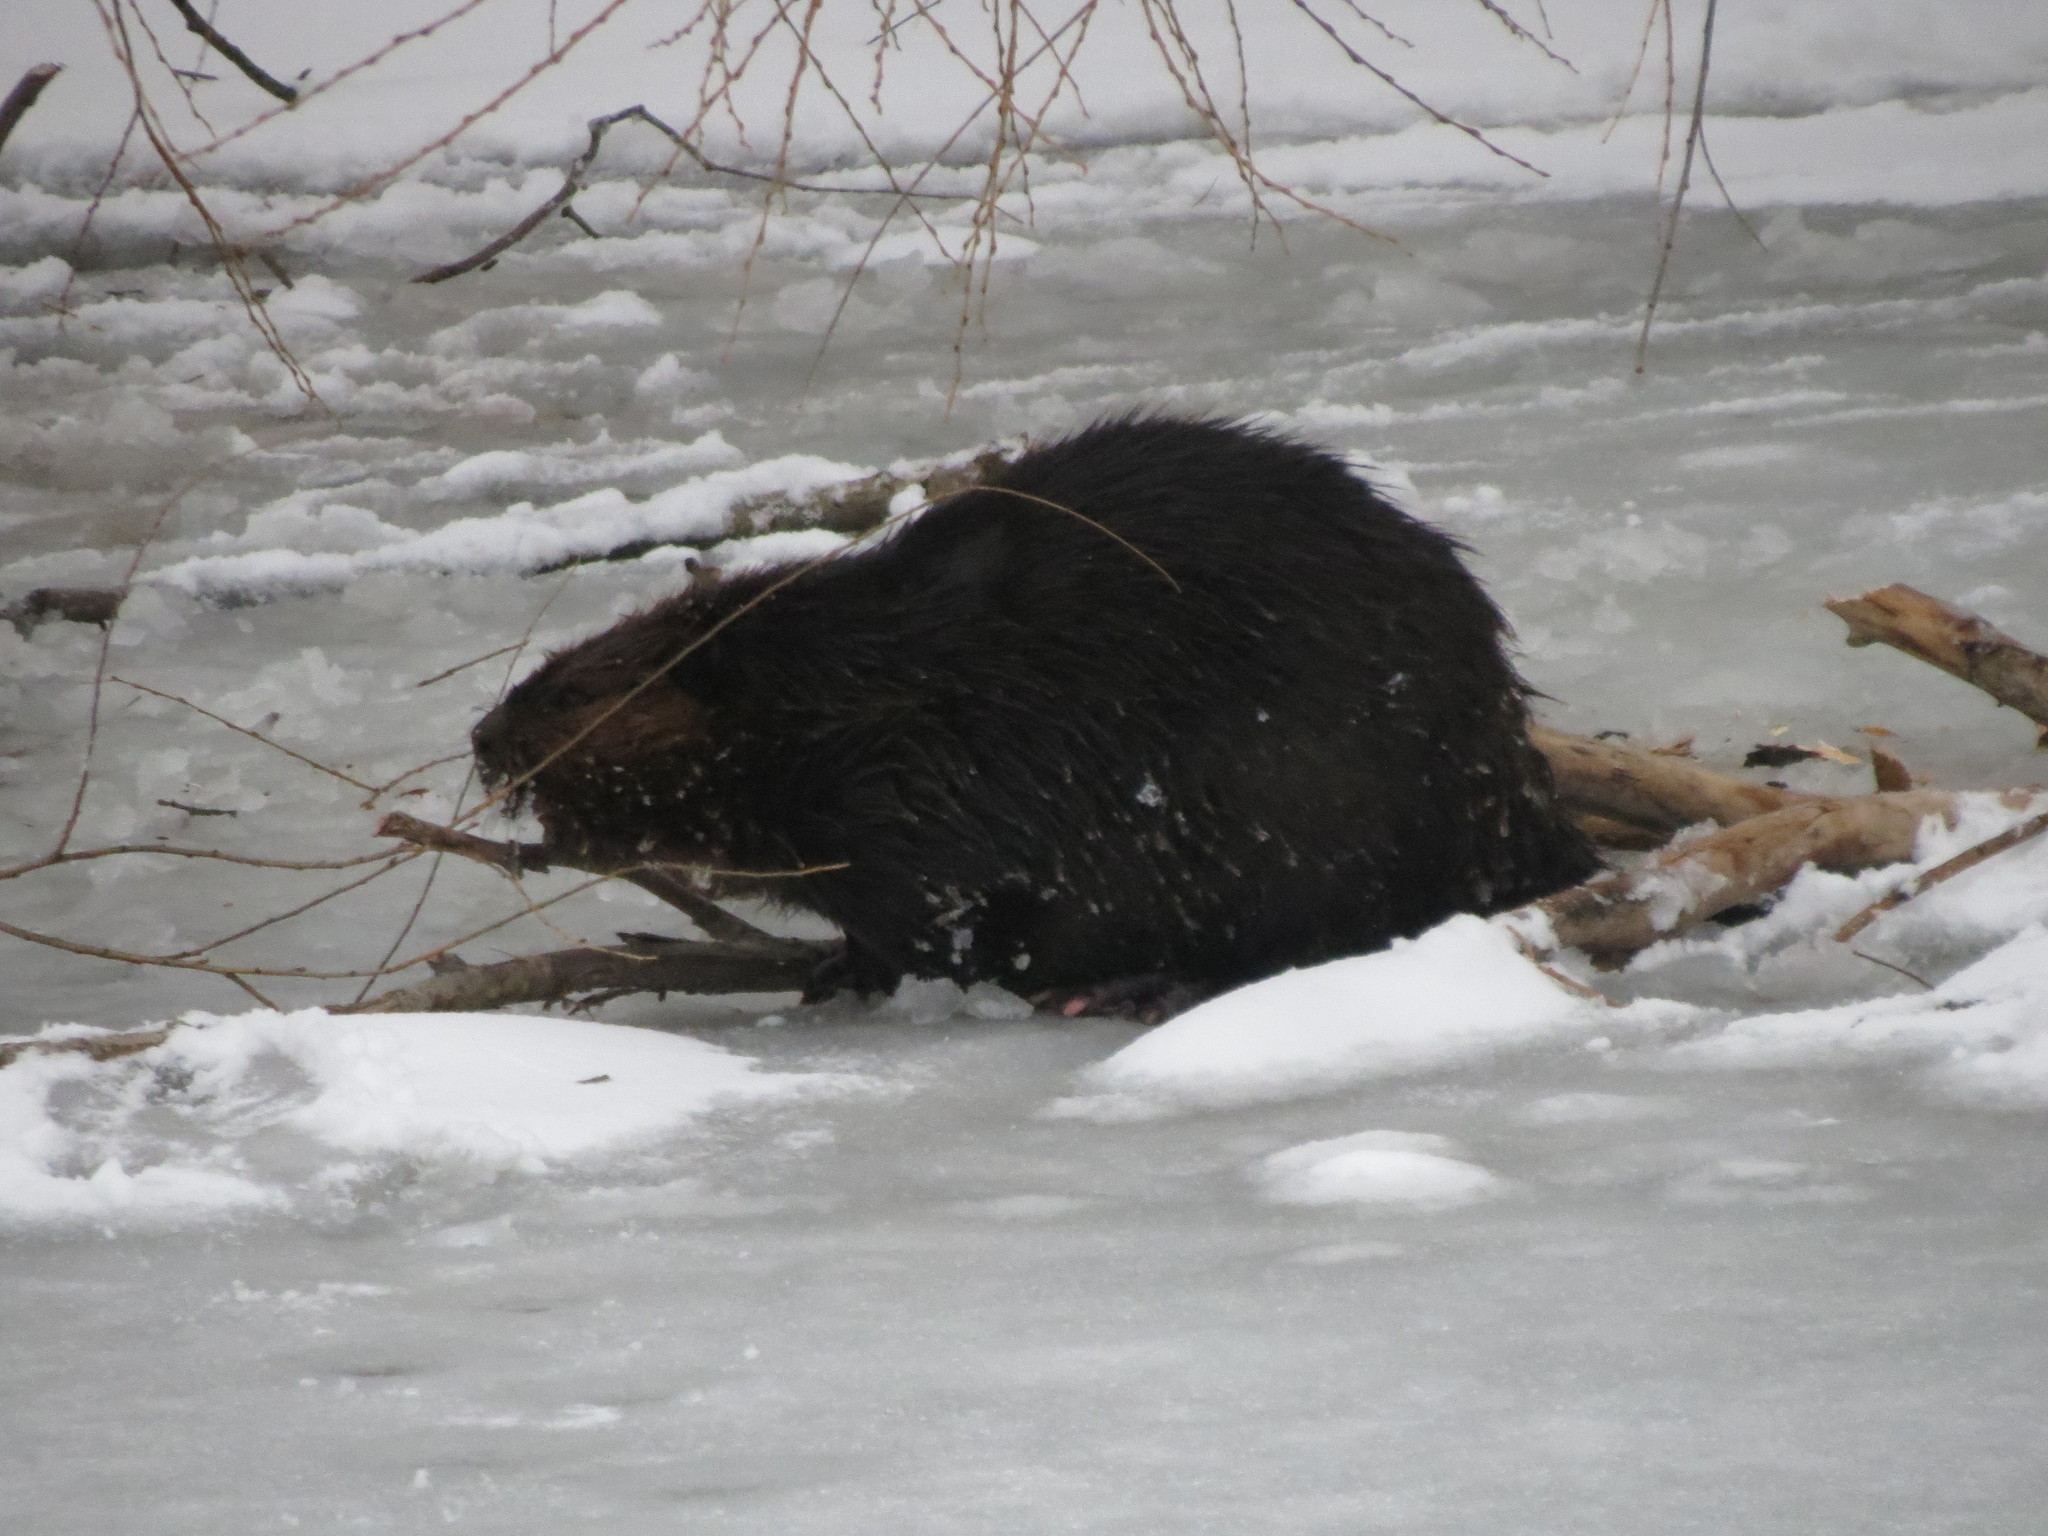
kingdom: Animalia
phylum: Chordata
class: Mammalia
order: Rodentia
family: Castoridae
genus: Castor
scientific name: Castor canadensis
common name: American beaver
